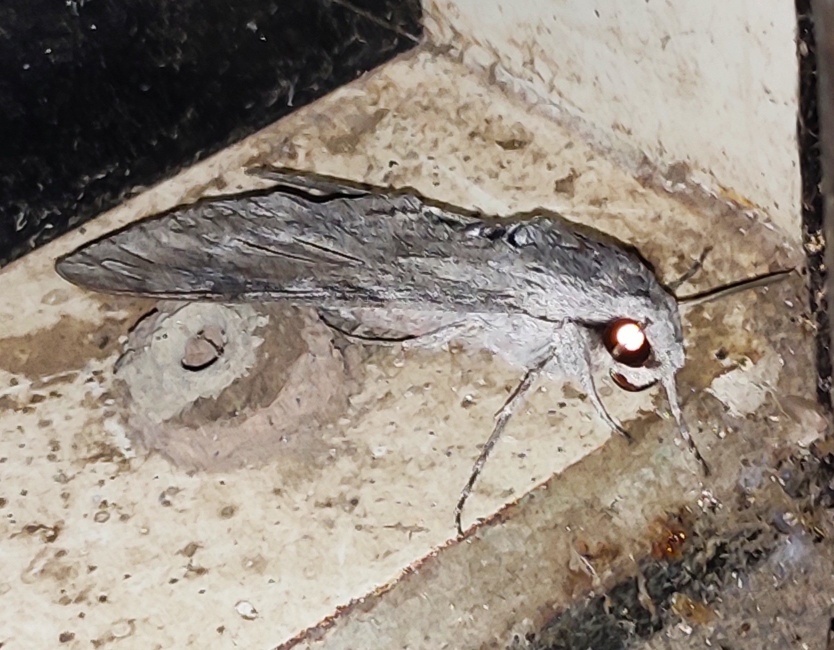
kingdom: Animalia
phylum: Arthropoda
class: Insecta
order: Lepidoptera
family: Sphingidae
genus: Agrius
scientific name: Agrius convolvuli
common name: Convolvulus hawkmoth
